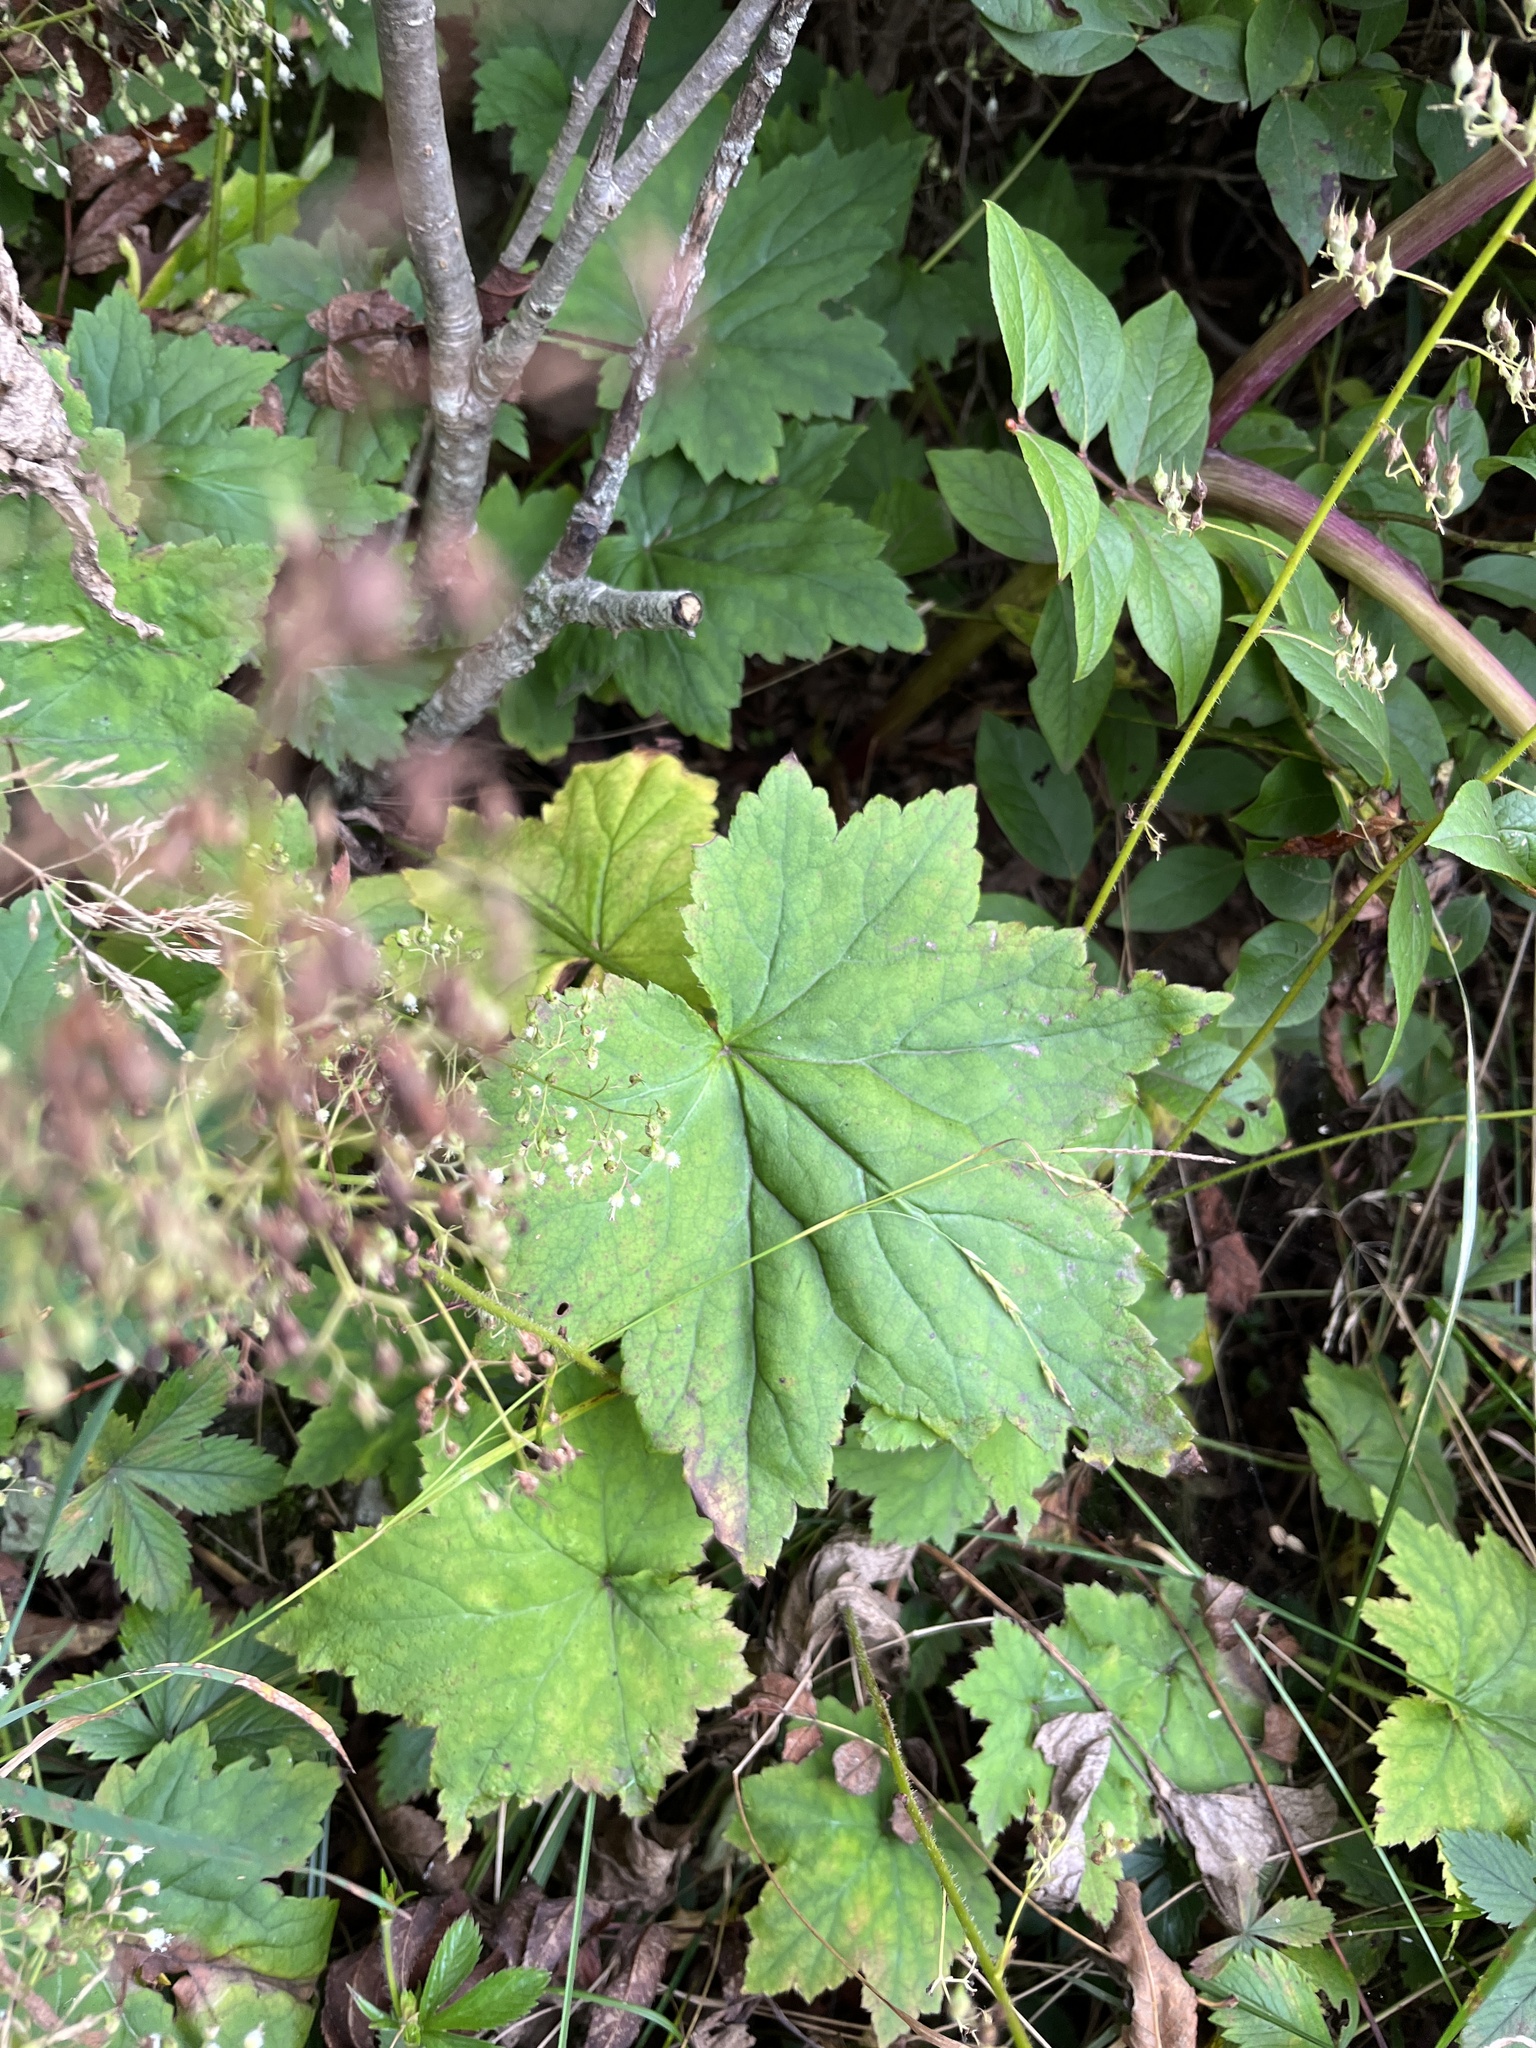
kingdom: Plantae
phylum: Tracheophyta
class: Magnoliopsida
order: Saxifragales
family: Saxifragaceae
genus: Heuchera
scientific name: Heuchera villosa
